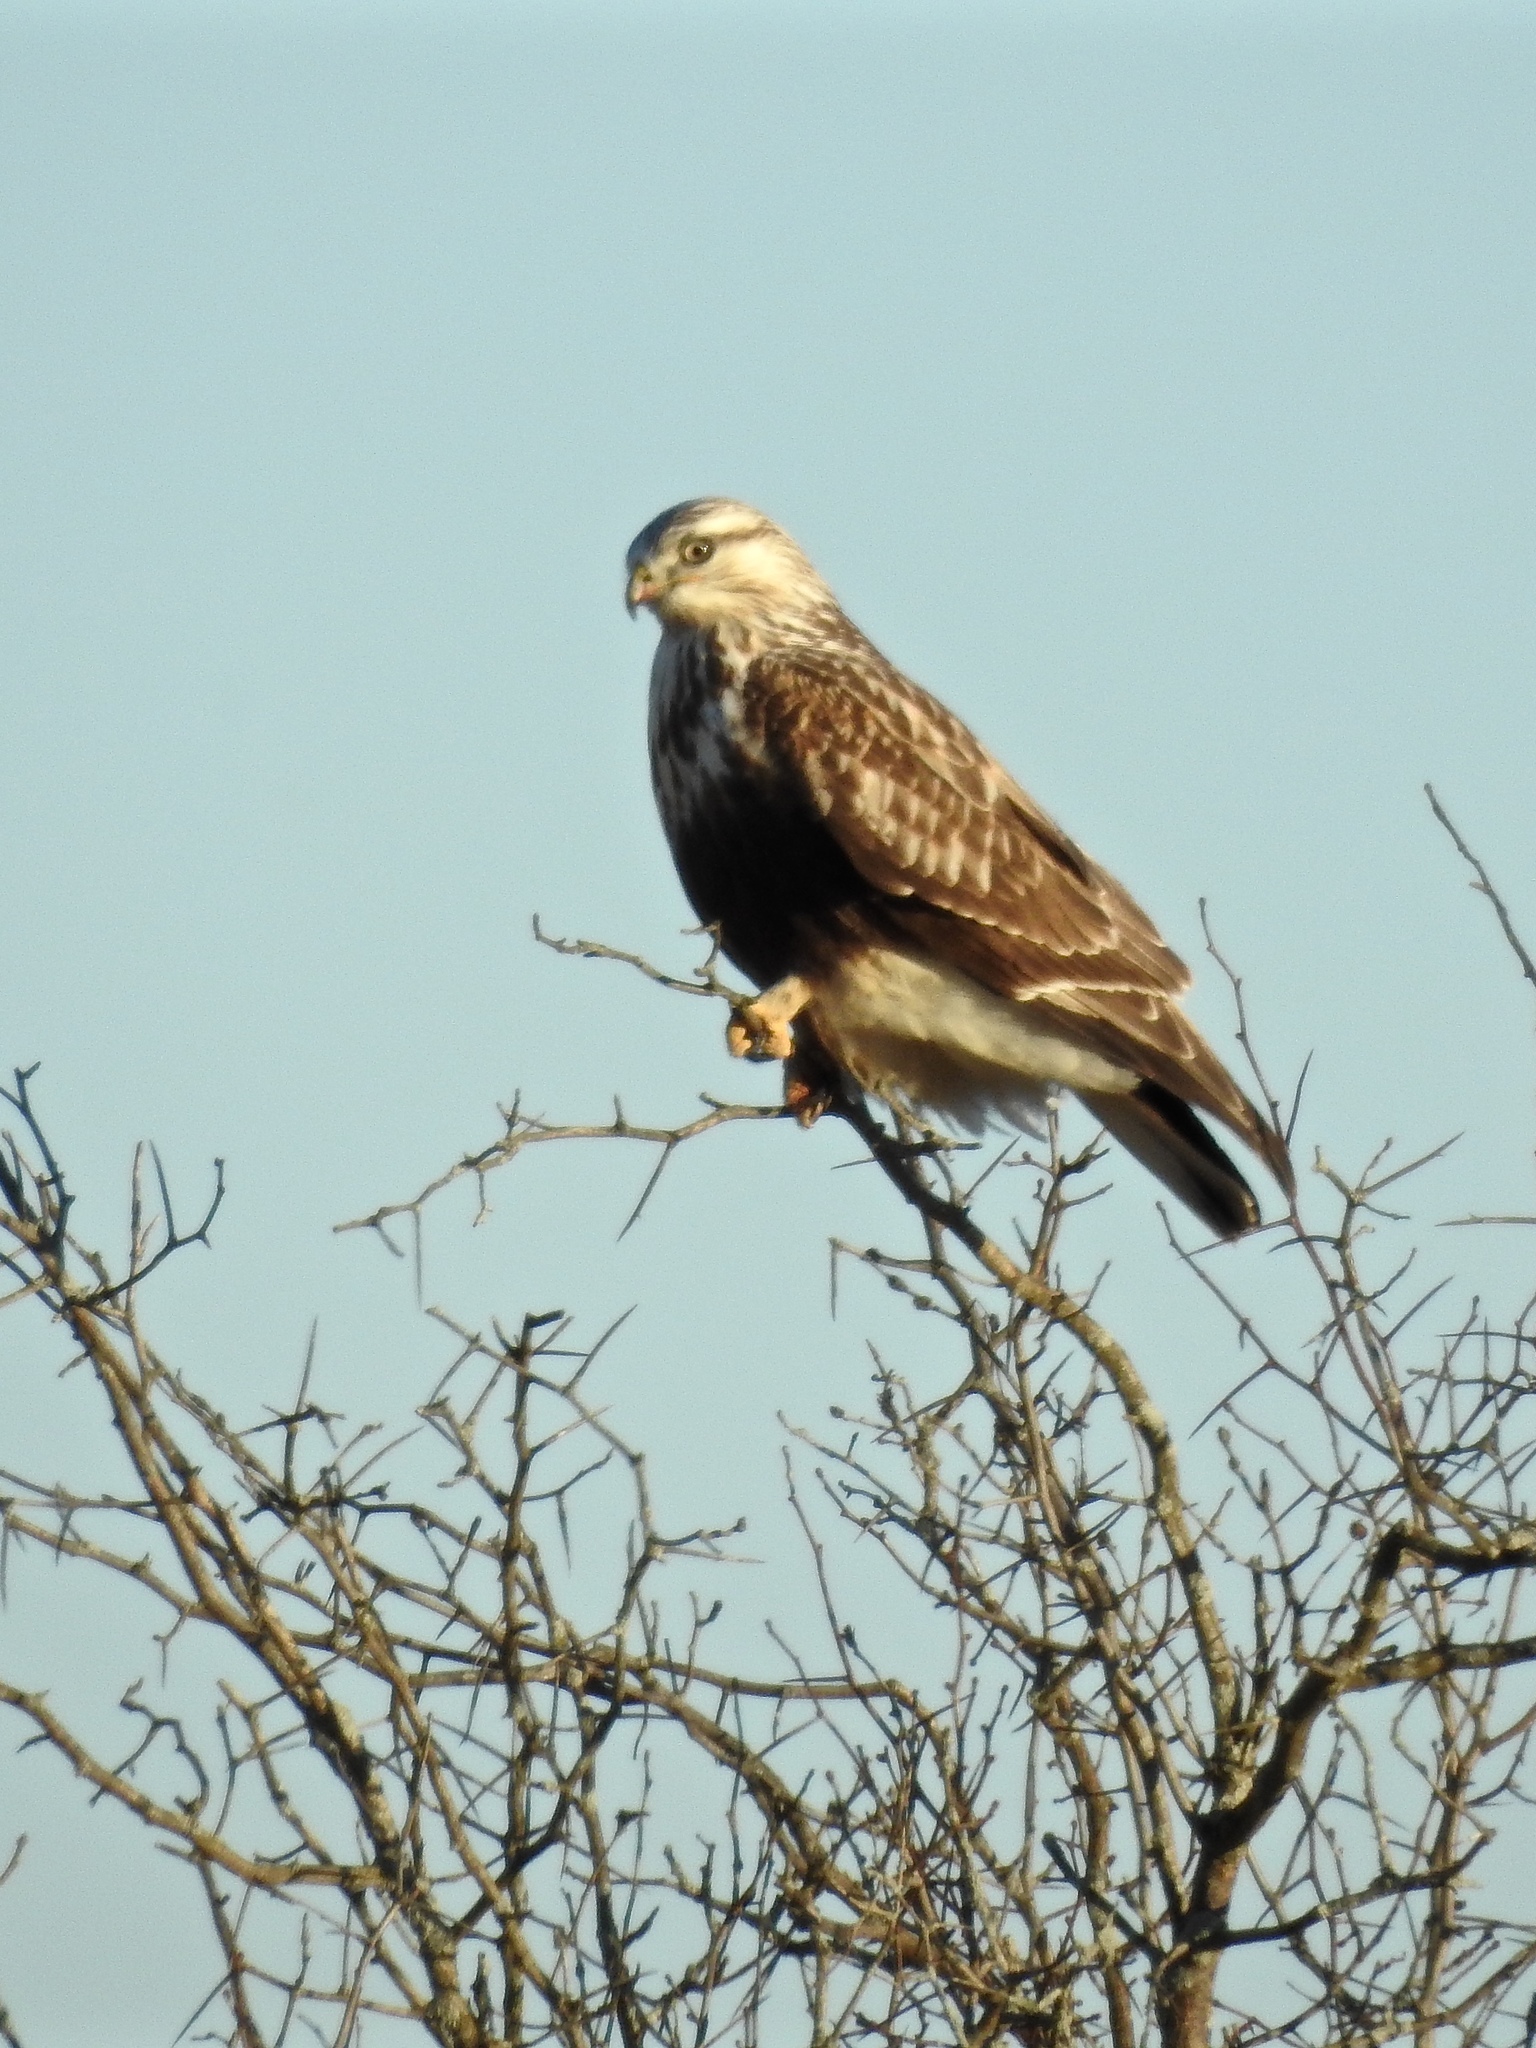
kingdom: Animalia
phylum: Chordata
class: Aves
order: Accipitriformes
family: Accipitridae
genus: Buteo
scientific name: Buteo lagopus
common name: Rough-legged buzzard
